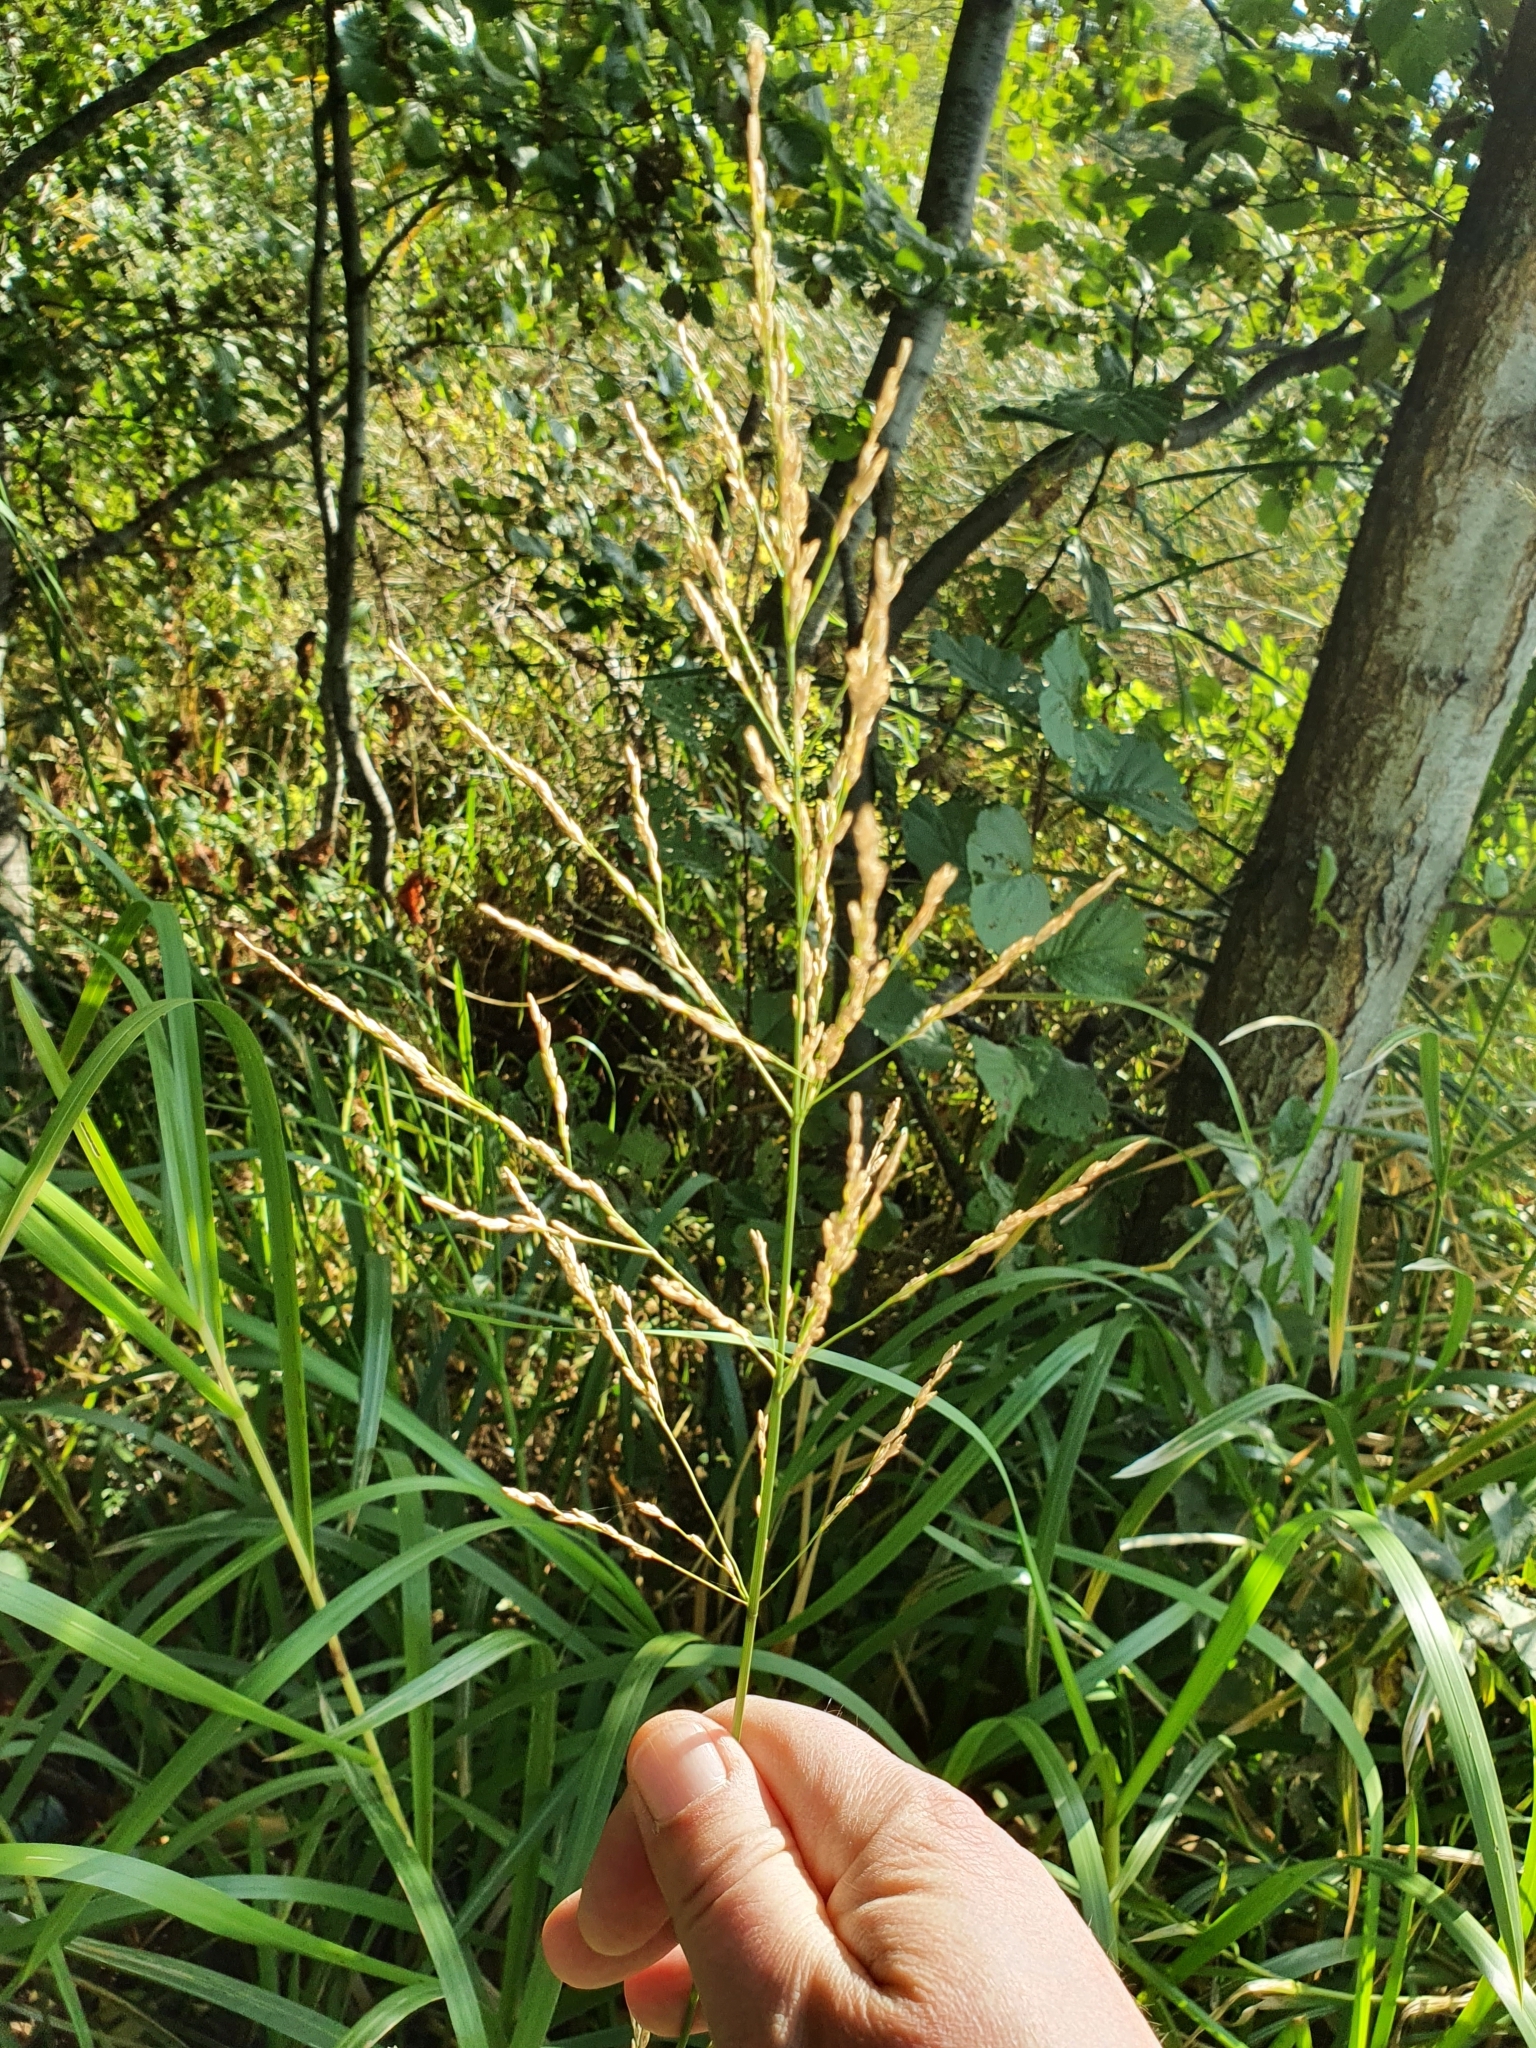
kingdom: Plantae
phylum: Tracheophyta
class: Liliopsida
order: Poales
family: Poaceae
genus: Glyceria
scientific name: Glyceria maxima
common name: Reed mannagrass
